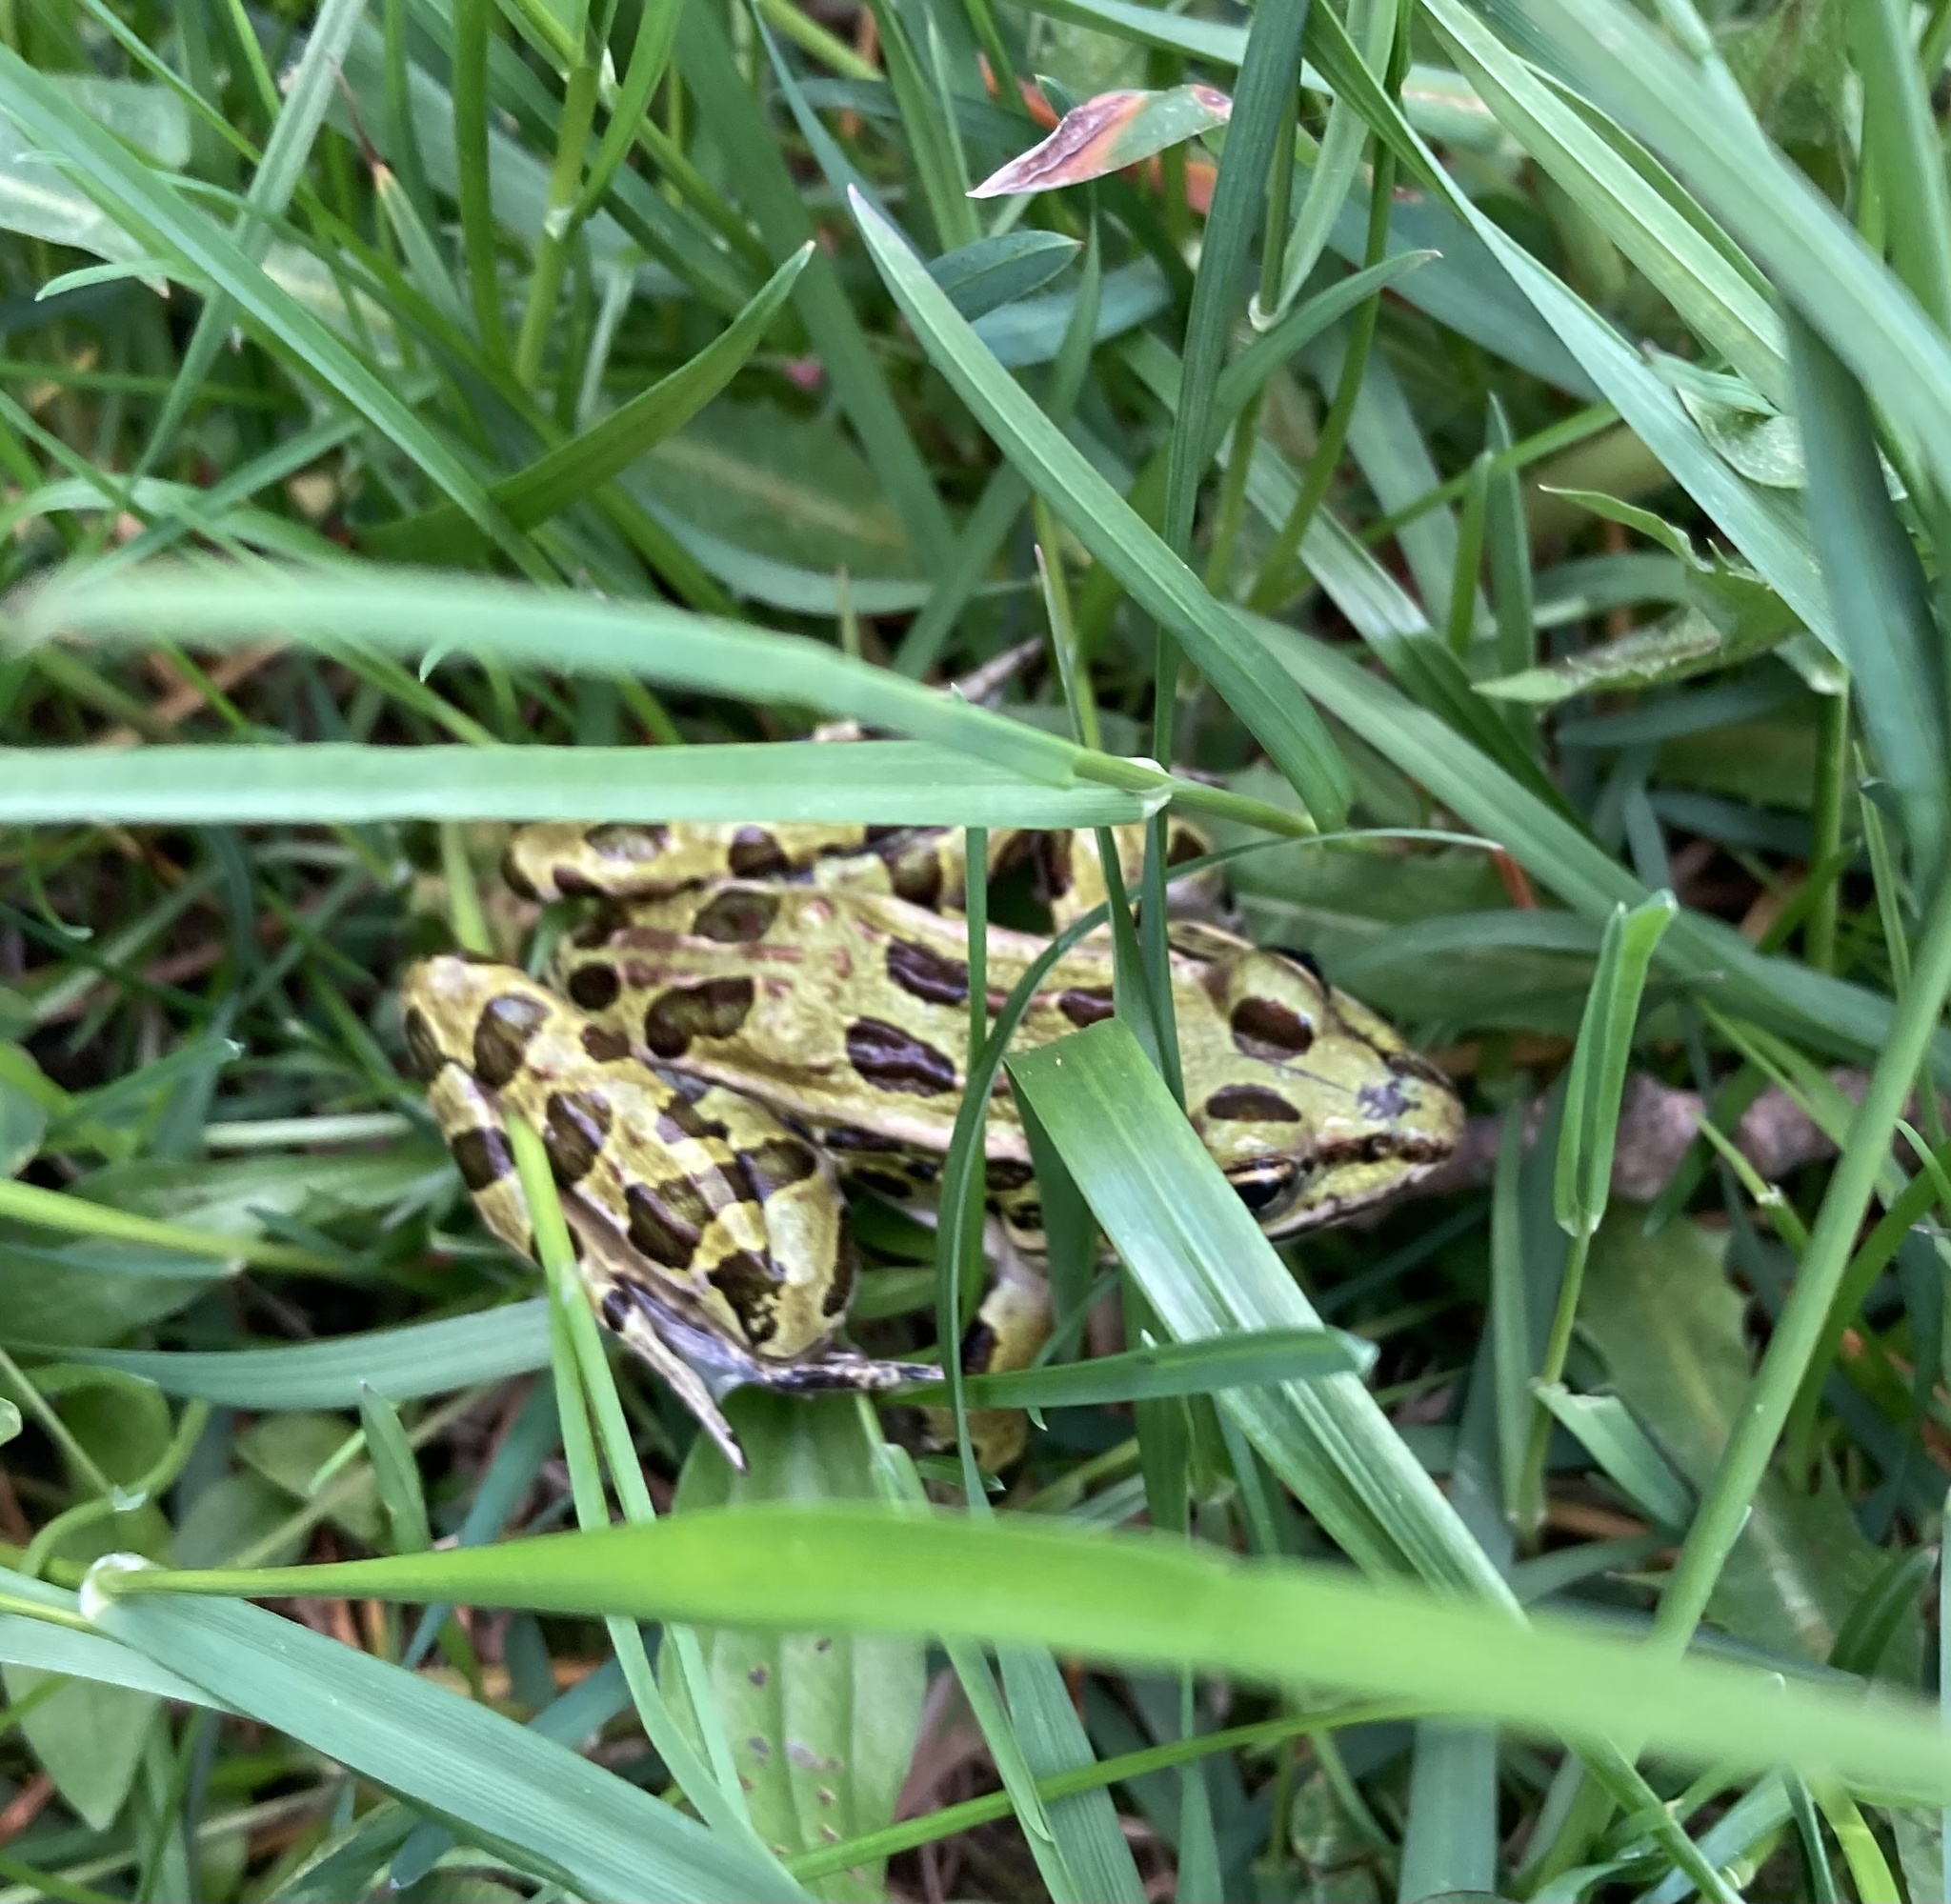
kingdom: Animalia
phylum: Chordata
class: Amphibia
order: Anura
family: Ranidae
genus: Lithobates
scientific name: Lithobates pipiens
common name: Northern leopard frog
